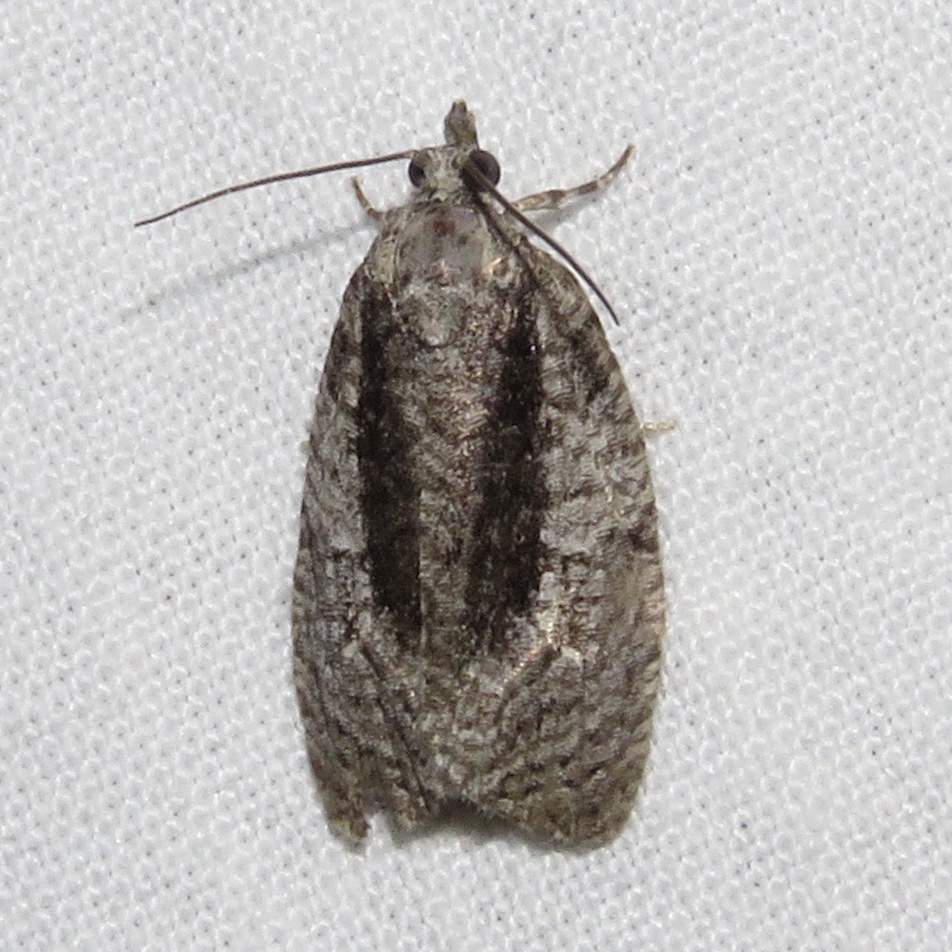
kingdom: Animalia
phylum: Arthropoda
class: Insecta
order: Lepidoptera
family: Tortricidae
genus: Apotomis
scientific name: Apotomis removana
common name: Green aspen leafroller
